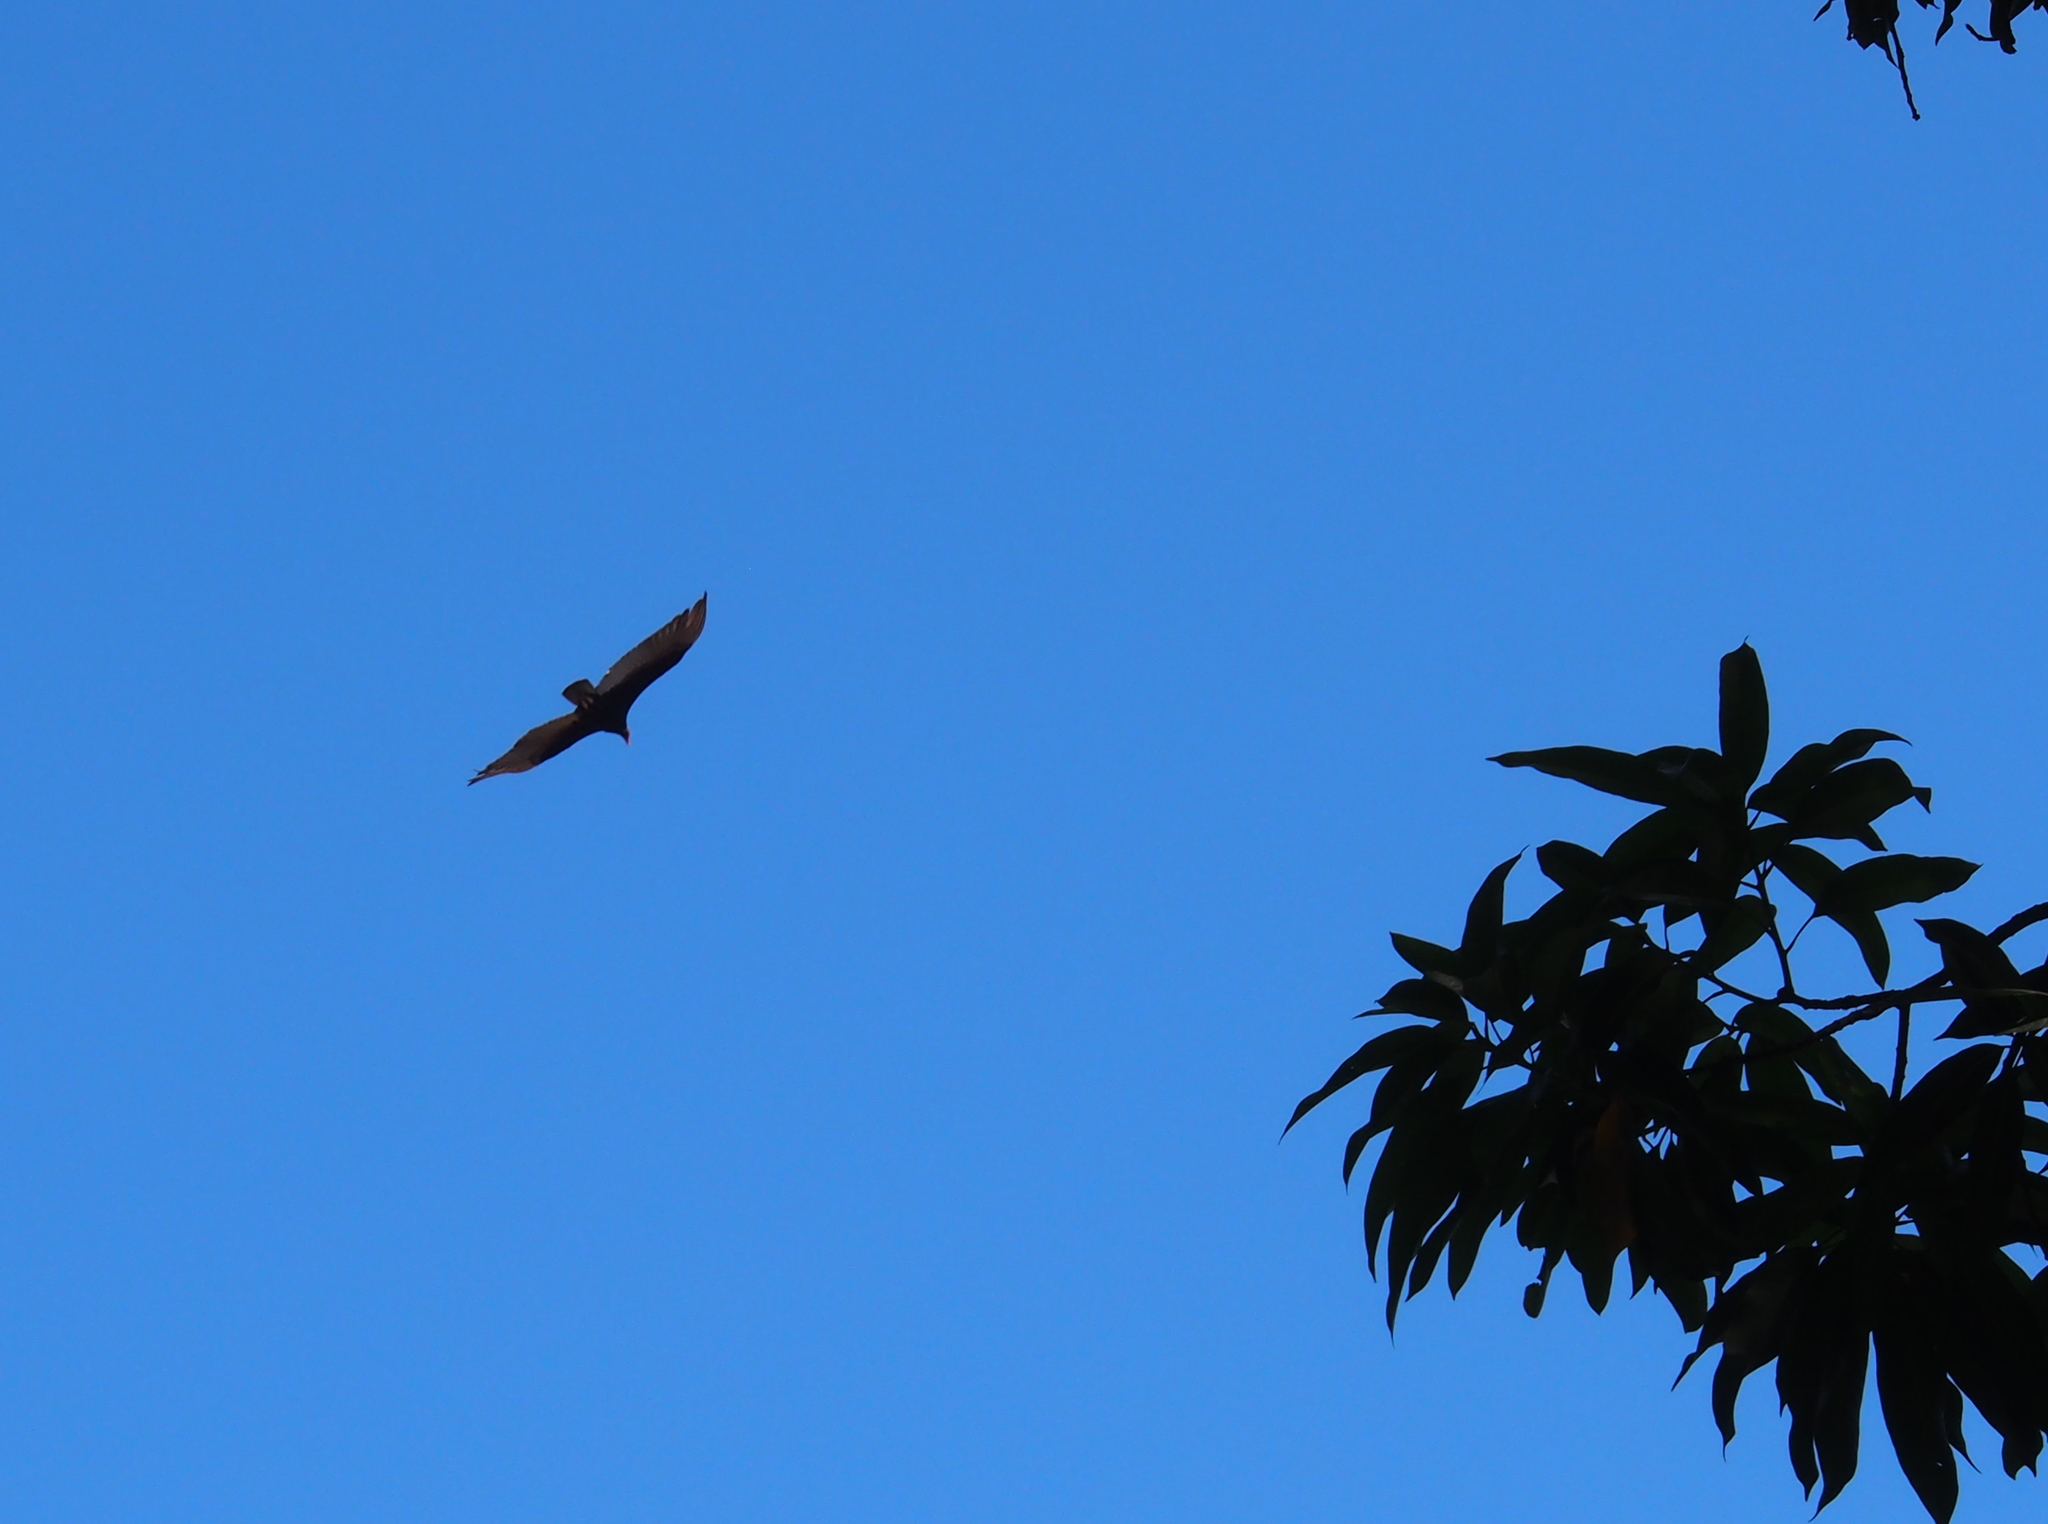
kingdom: Animalia
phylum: Chordata
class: Aves
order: Accipitriformes
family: Cathartidae
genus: Cathartes
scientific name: Cathartes aura
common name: Turkey vulture
